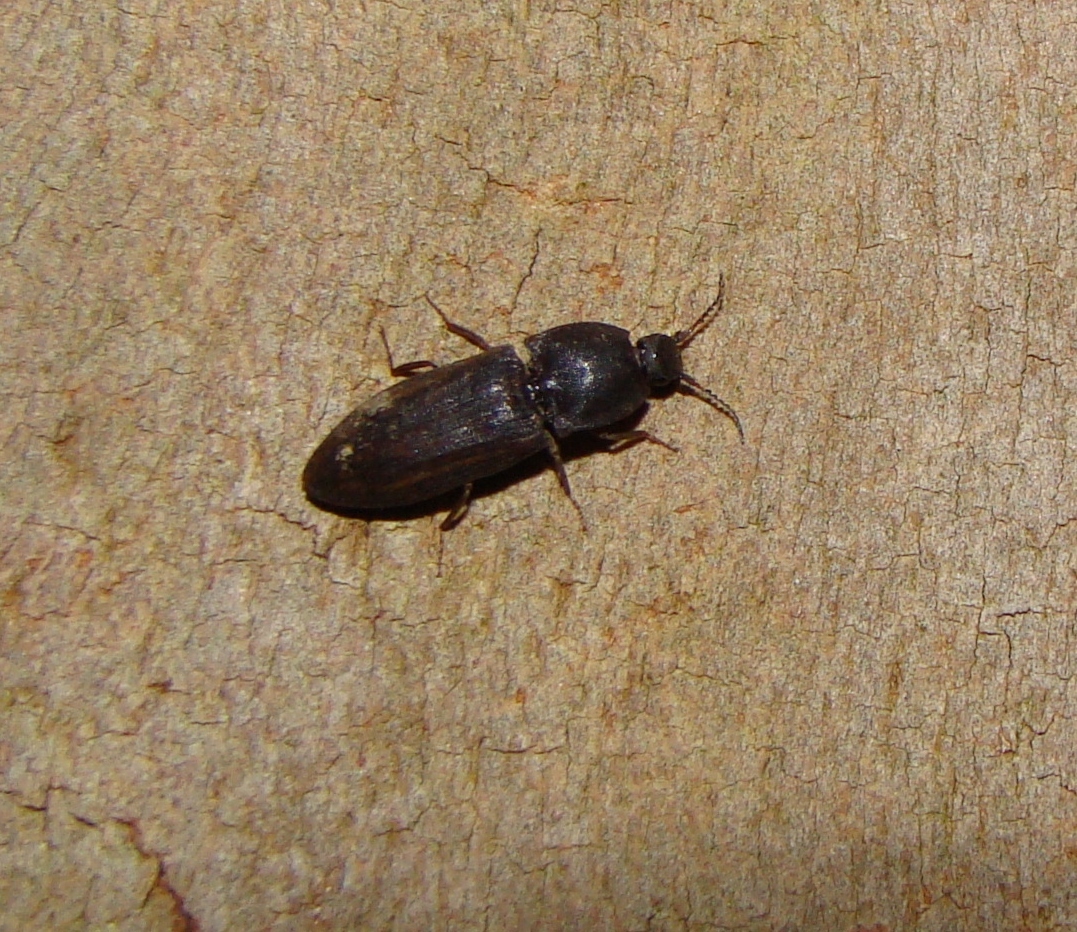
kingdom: Animalia
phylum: Arthropoda
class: Insecta
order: Coleoptera
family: Elateridae
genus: Agrypnus
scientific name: Agrypnus
